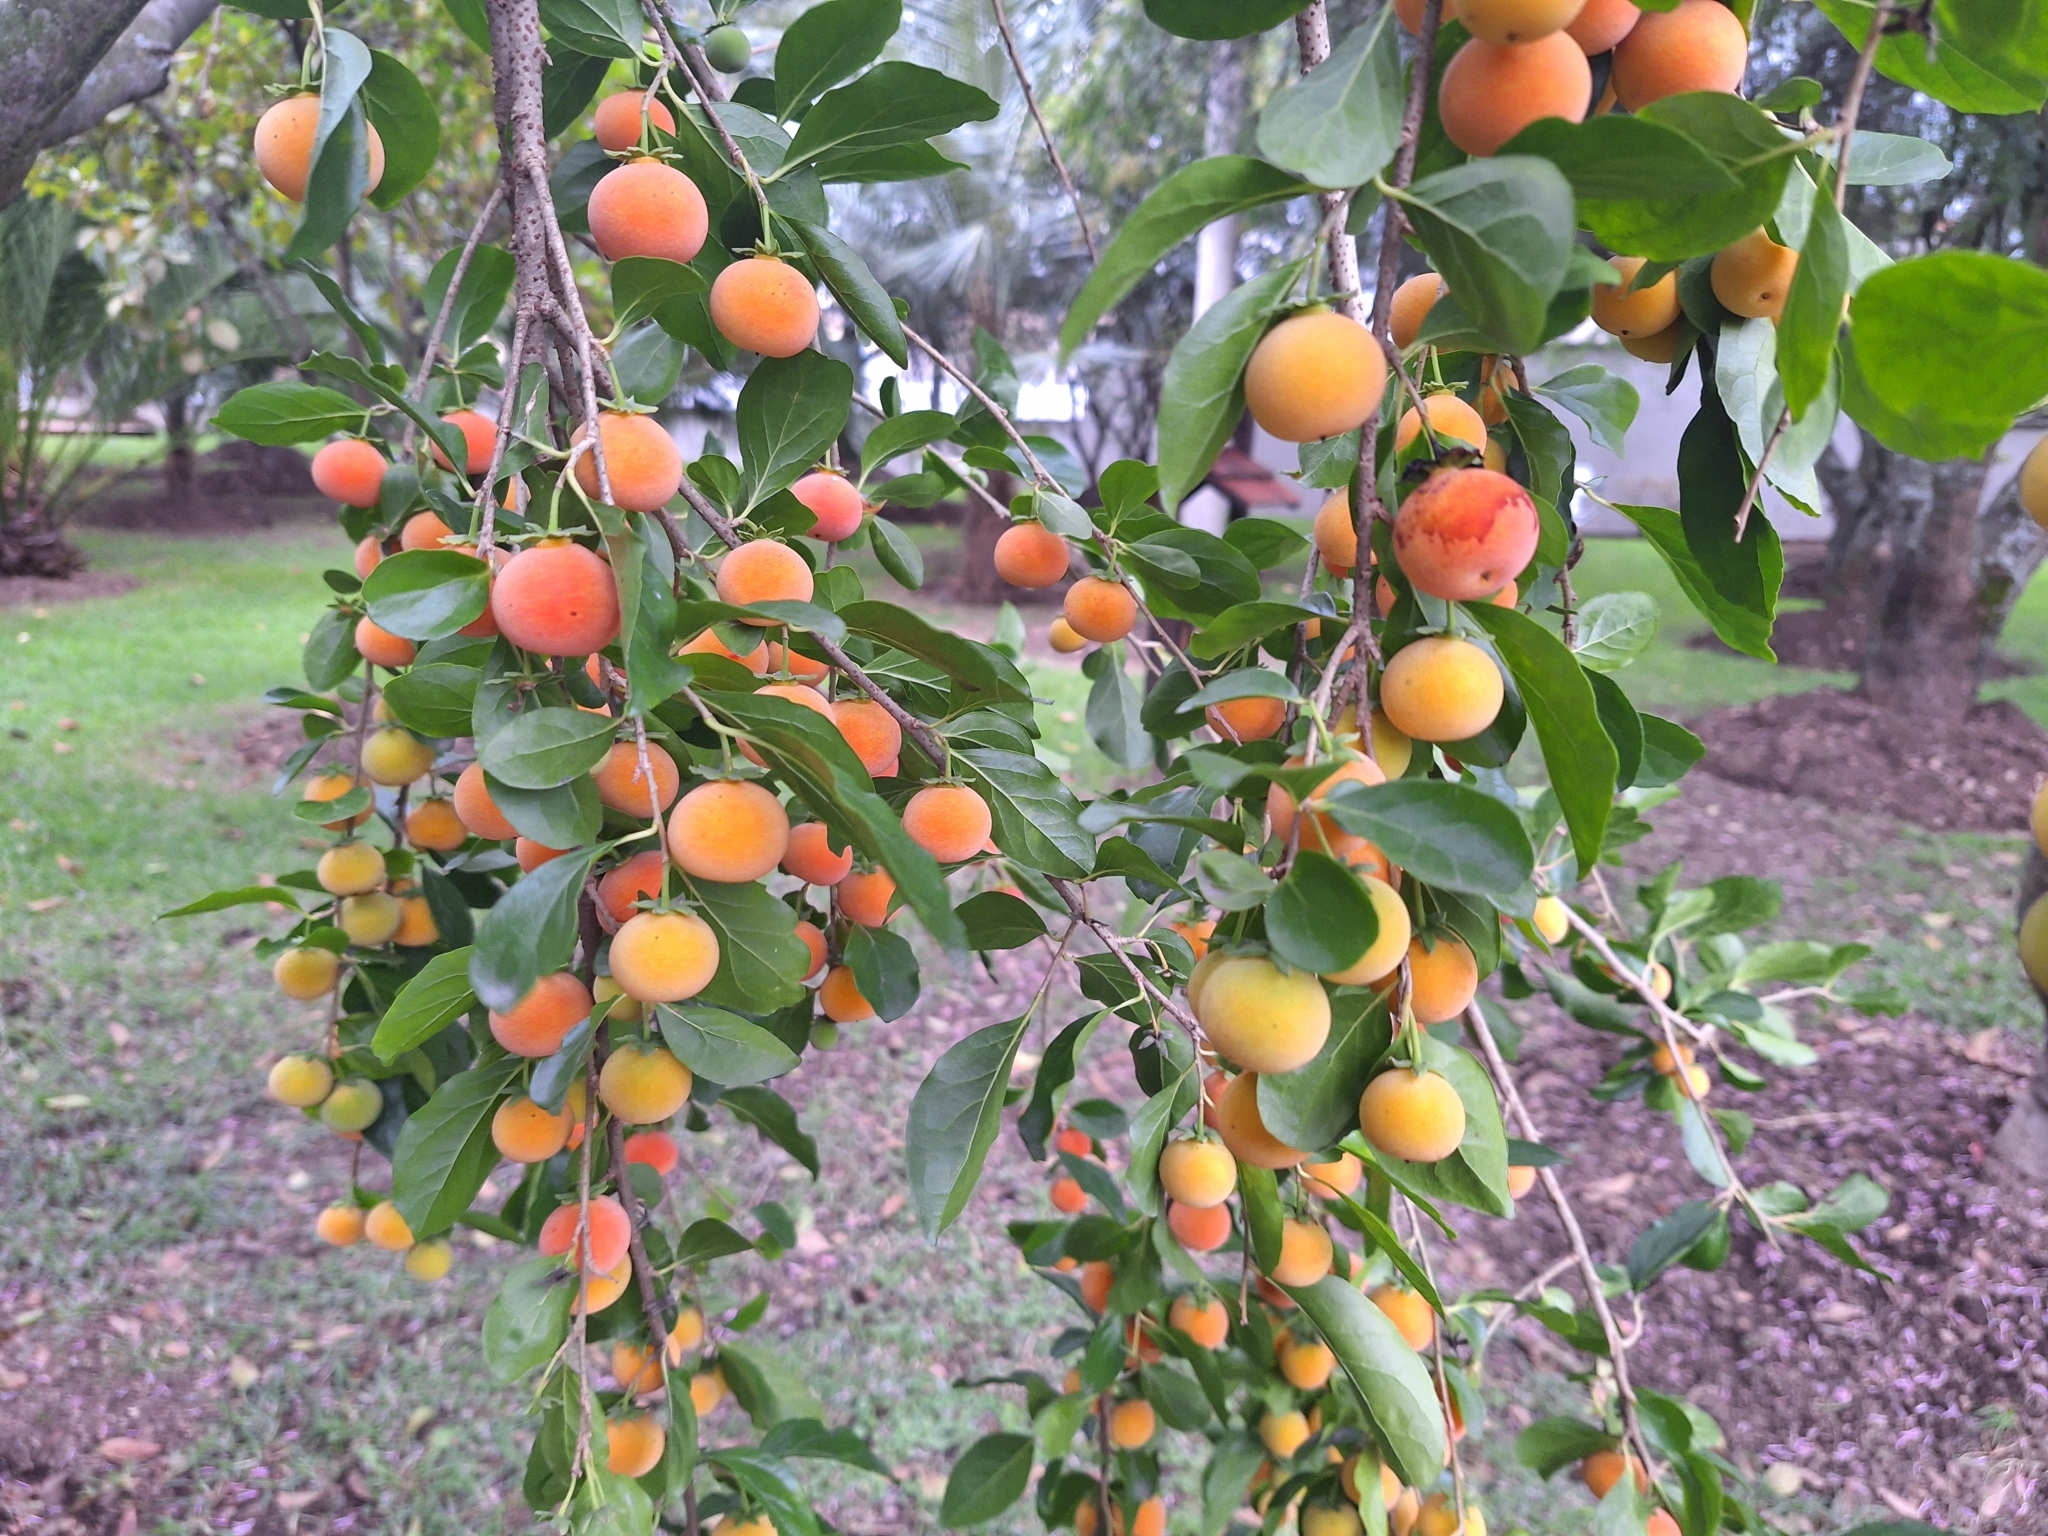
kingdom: Plantae
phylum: Tracheophyta
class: Magnoliopsida
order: Malpighiales
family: Salicaceae
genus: Dovyalis
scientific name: Dovyalis abyssinica
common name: Abyssinian-gooseberry
